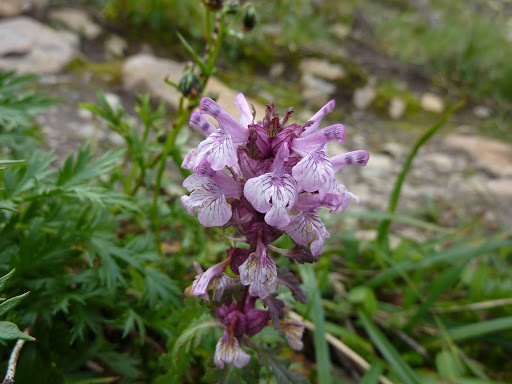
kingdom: Plantae
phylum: Tracheophyta
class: Magnoliopsida
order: Lamiales
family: Orobanchaceae
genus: Pedicularis
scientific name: Pedicularis verticillata
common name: Whorled lousewort
